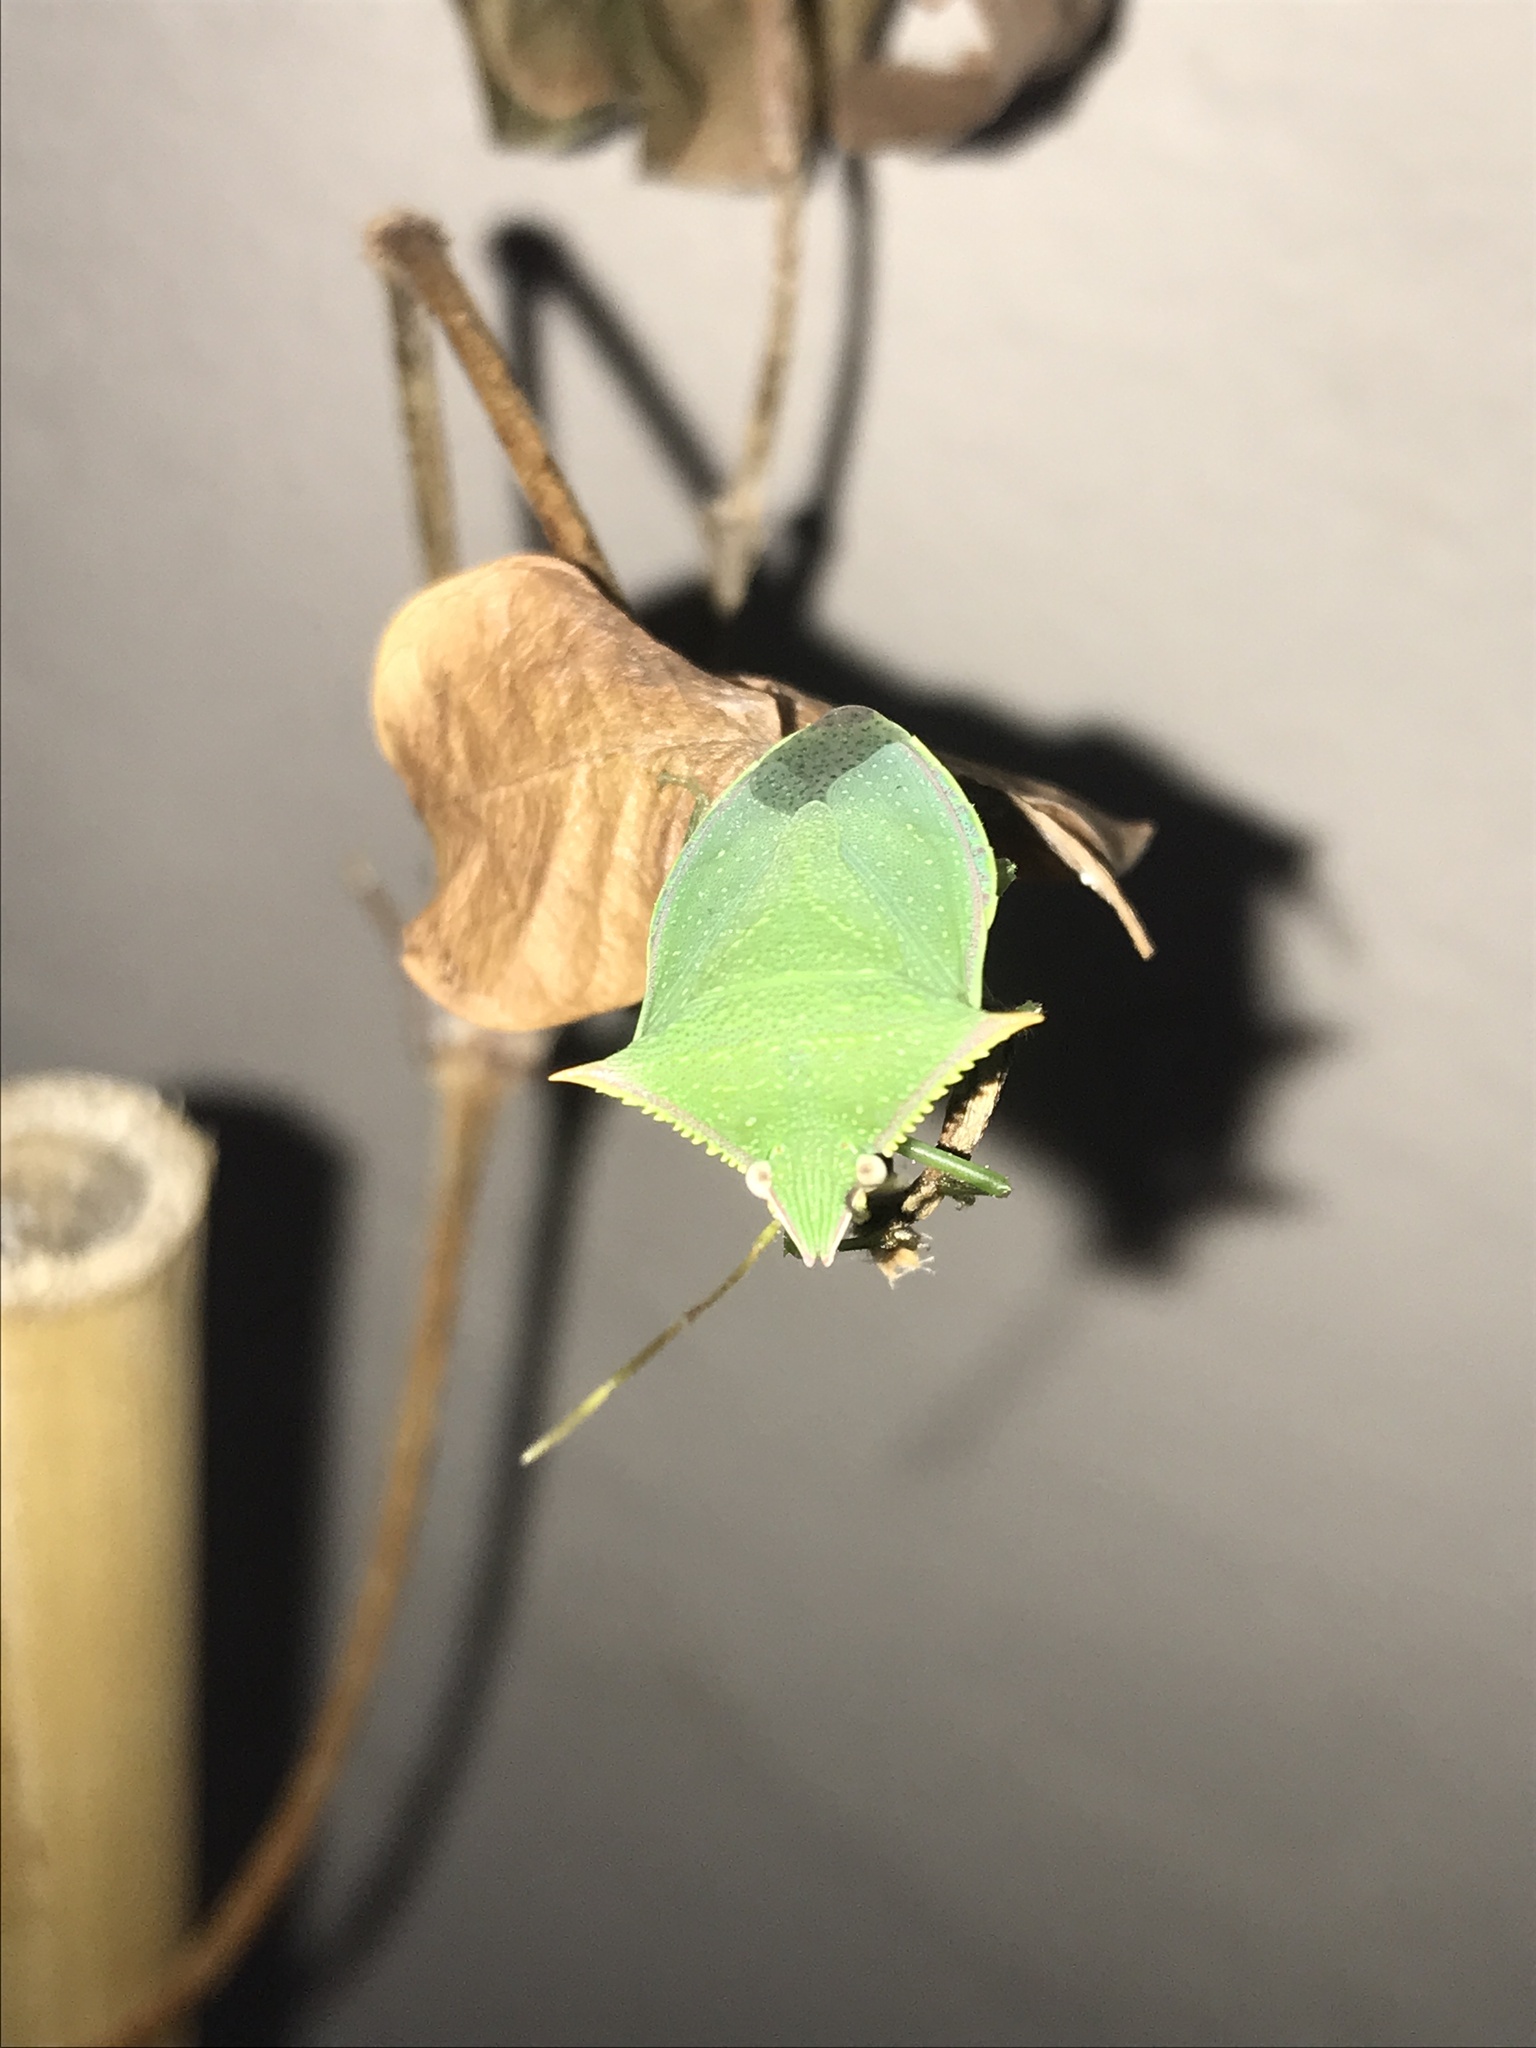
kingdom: Animalia
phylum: Arthropoda
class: Insecta
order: Hemiptera
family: Pentatomidae
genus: Loxa
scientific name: Loxa deducta
